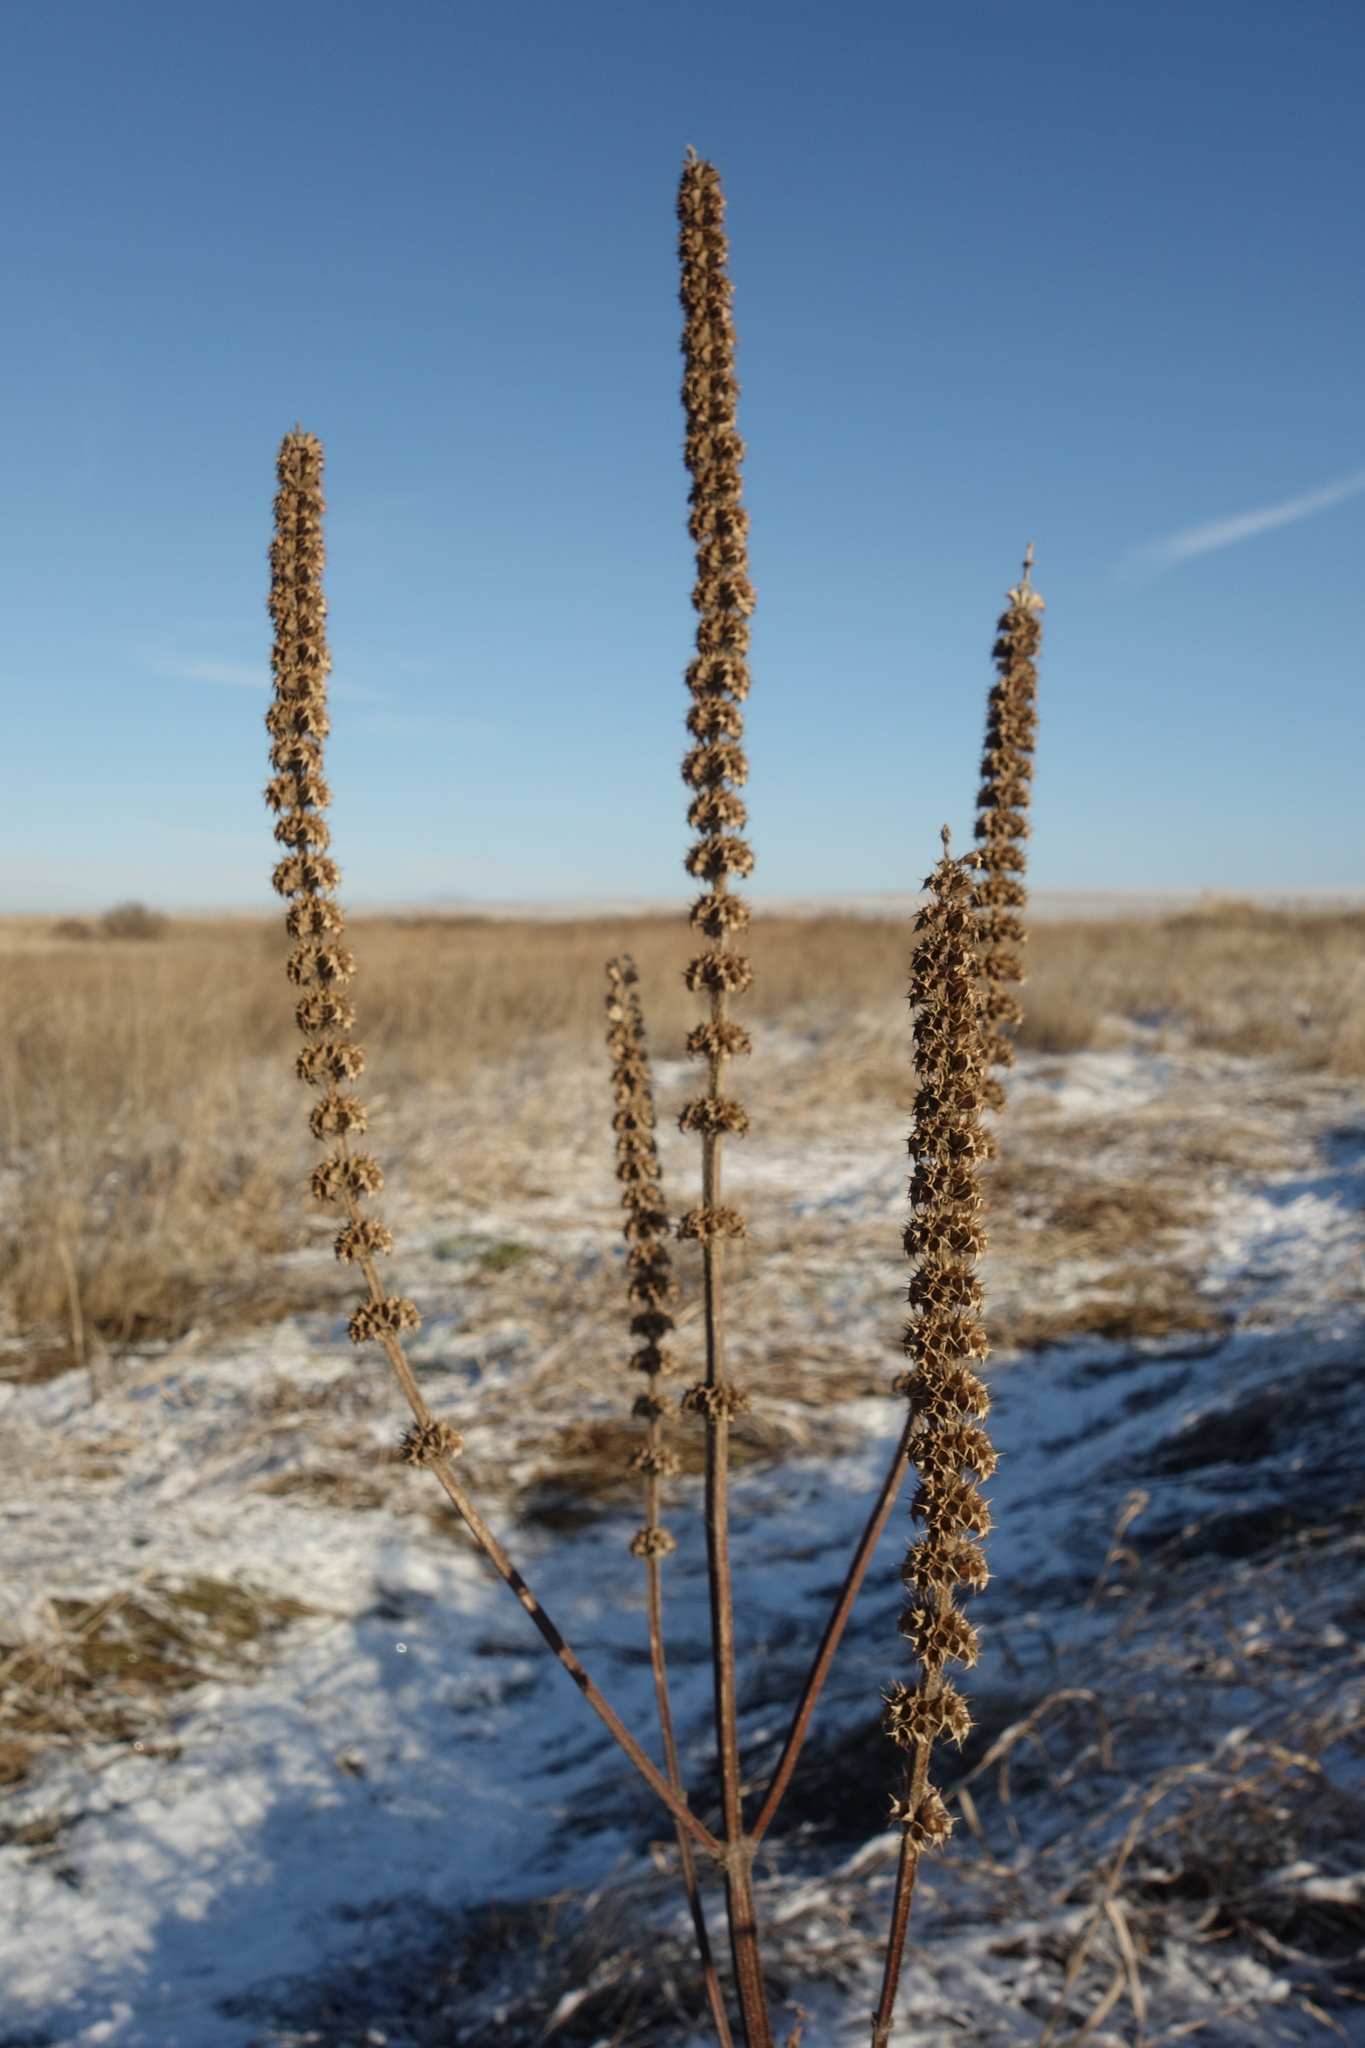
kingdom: Plantae
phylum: Tracheophyta
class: Magnoliopsida
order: Lamiales
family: Lamiaceae
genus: Leonurus
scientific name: Leonurus quinquelobatus
